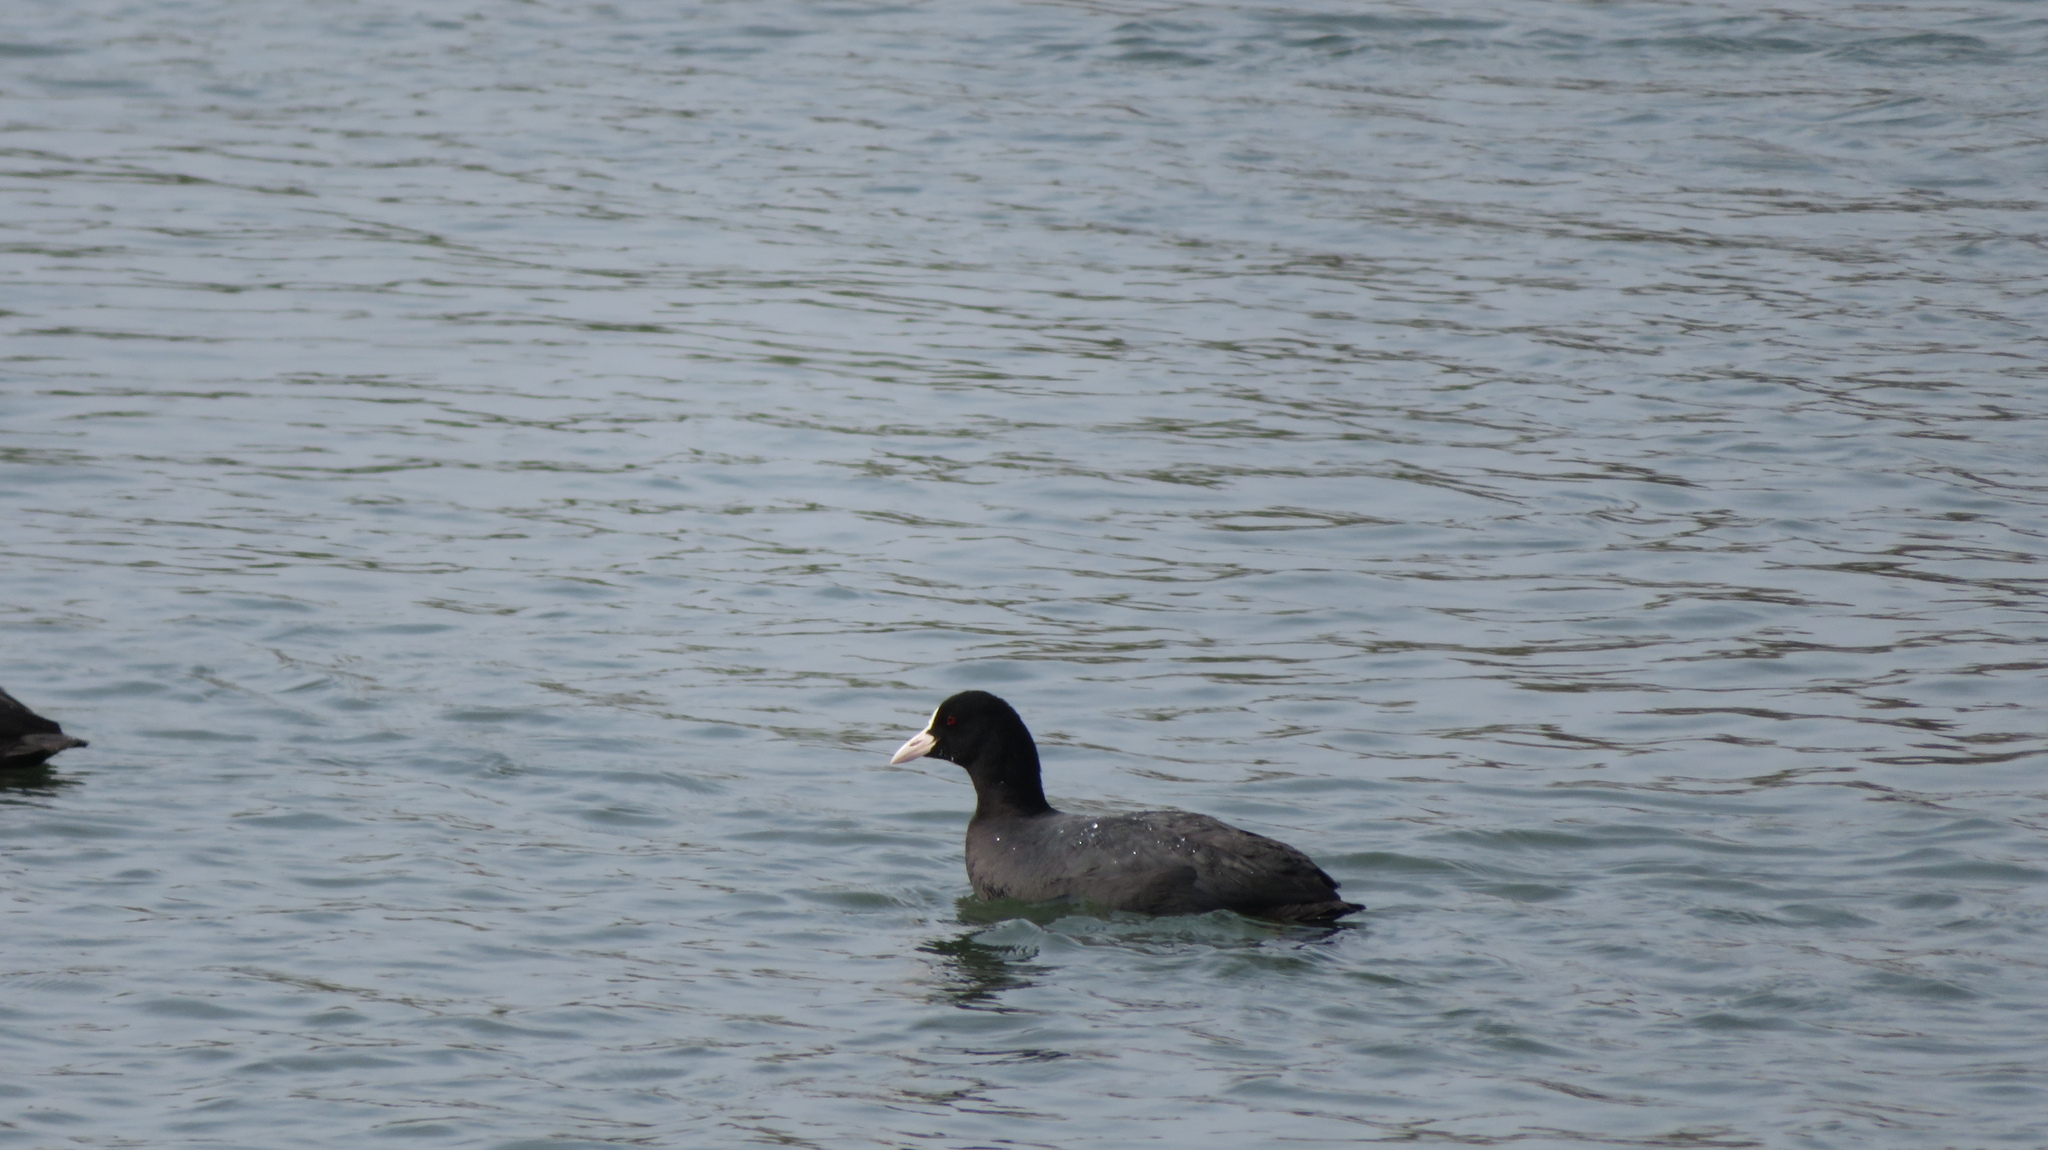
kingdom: Animalia
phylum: Chordata
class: Aves
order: Gruiformes
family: Rallidae
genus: Fulica
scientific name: Fulica atra
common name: Eurasian coot
